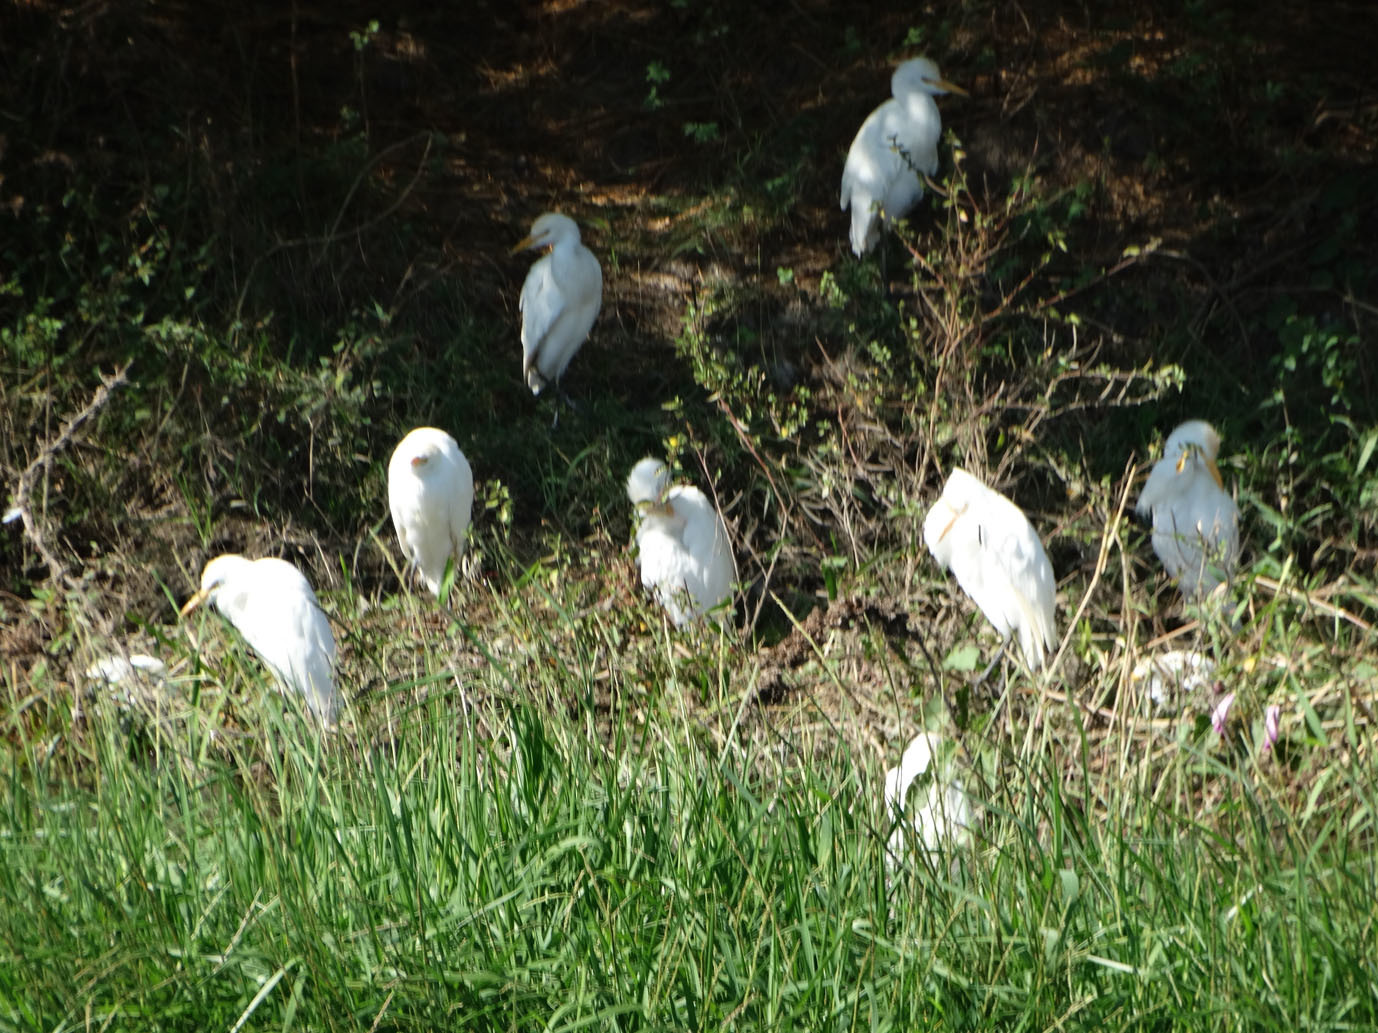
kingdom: Animalia
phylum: Chordata
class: Aves
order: Pelecaniformes
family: Ardeidae
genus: Bubulcus
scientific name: Bubulcus ibis
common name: Cattle egret
